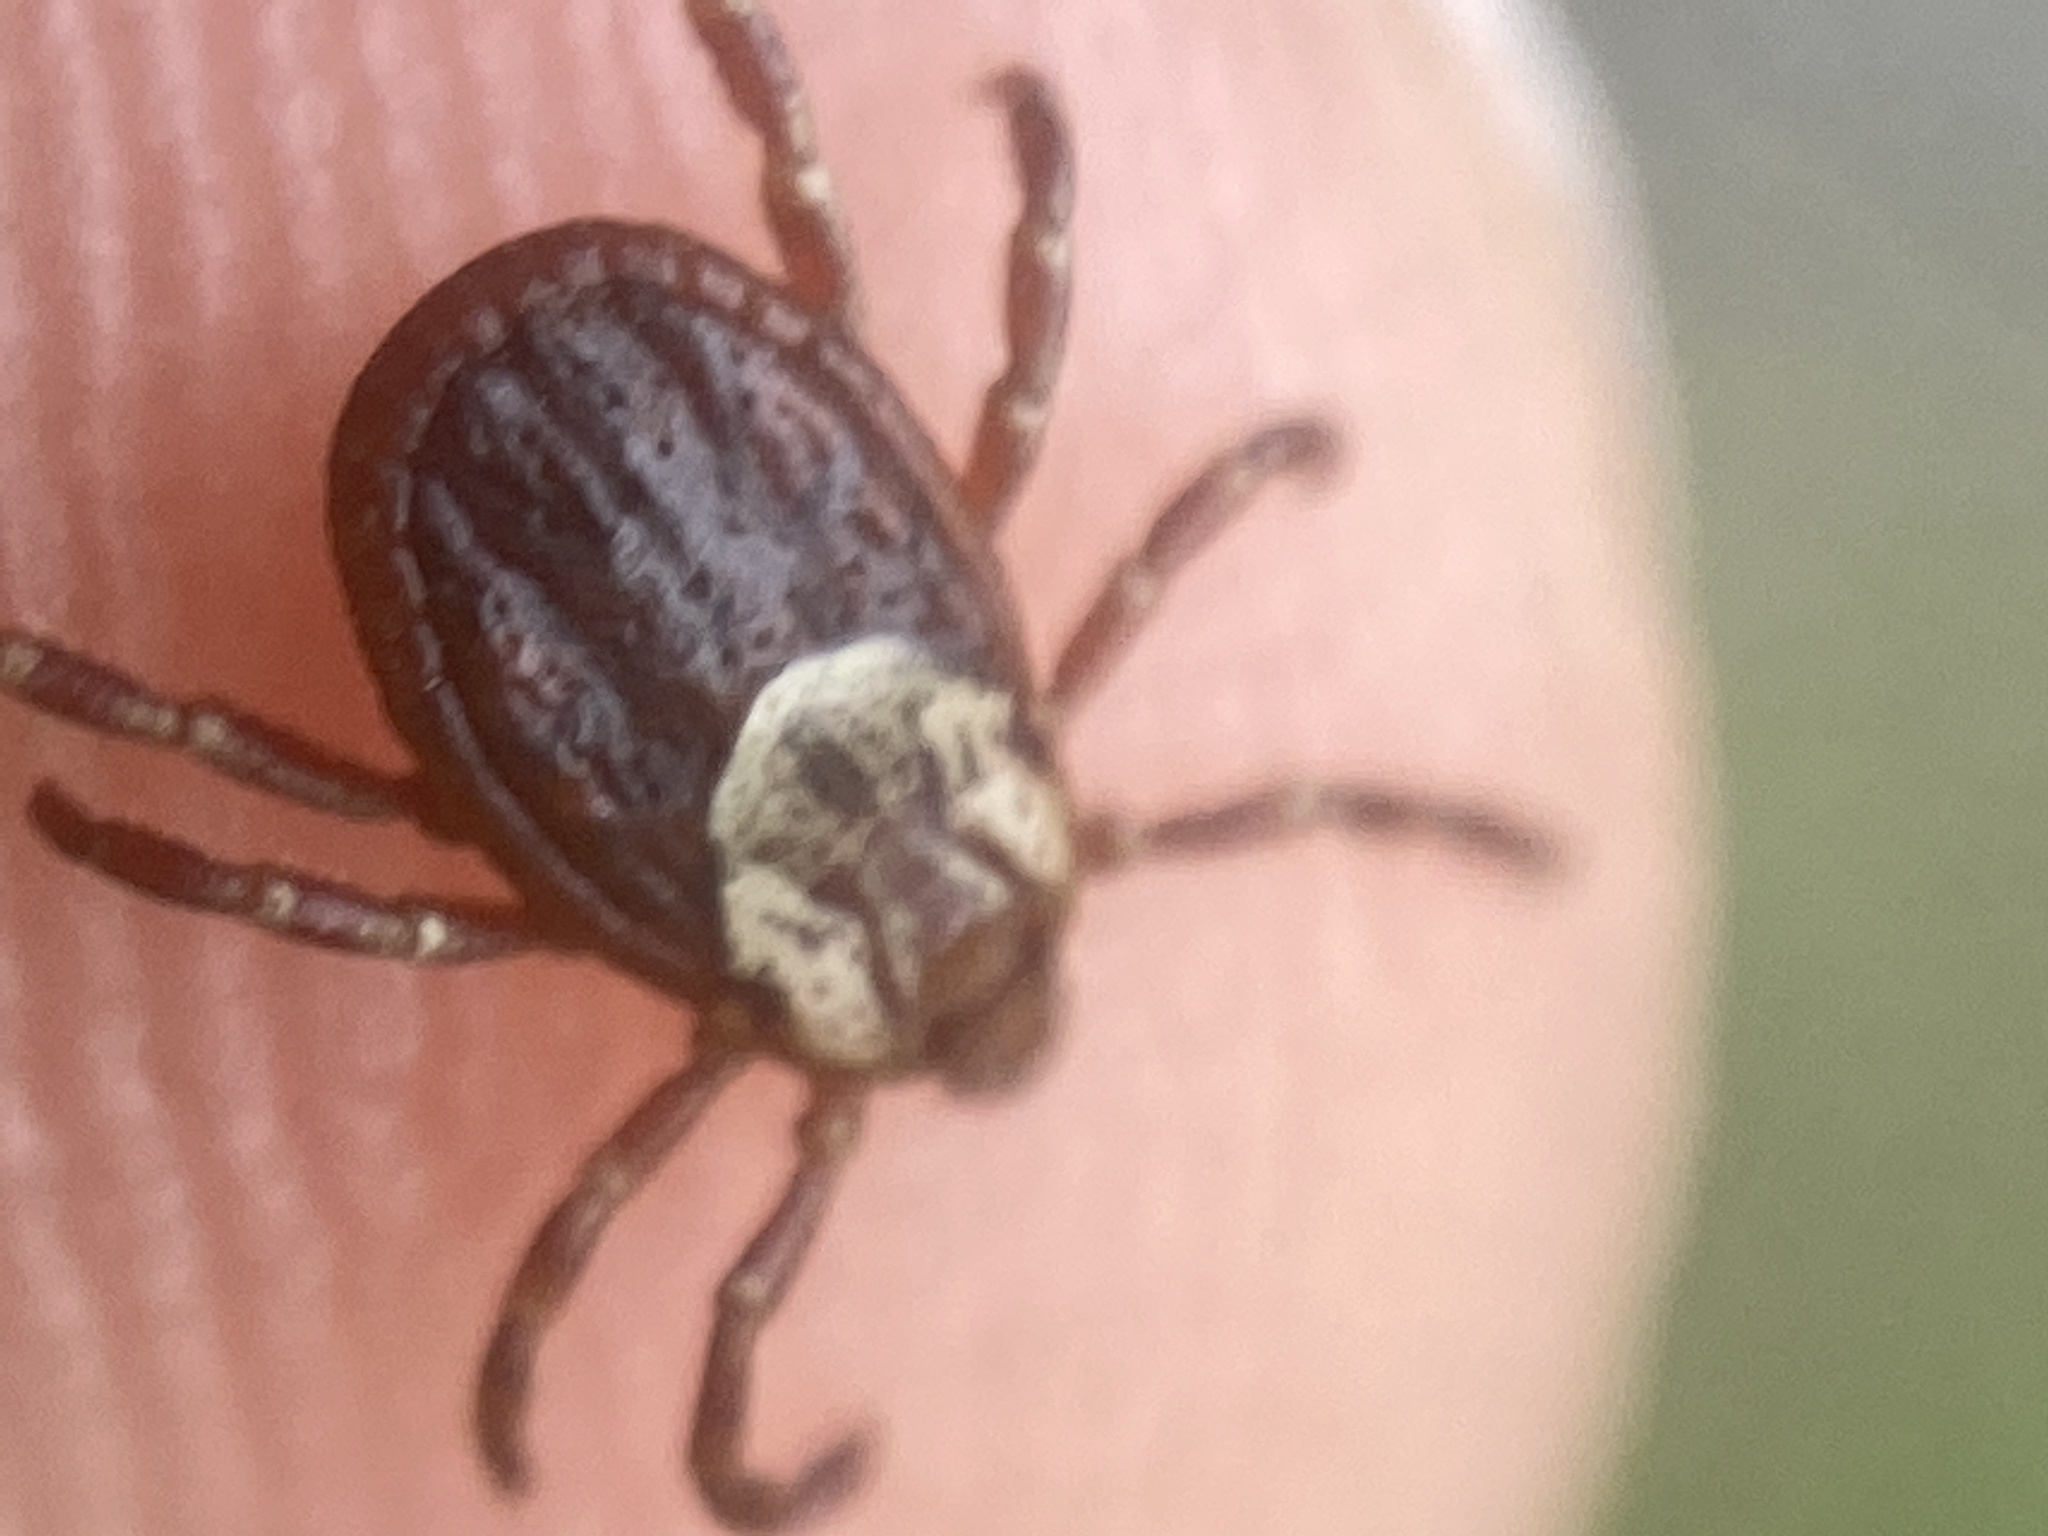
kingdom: Animalia
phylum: Arthropoda
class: Arachnida
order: Ixodida
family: Ixodidae
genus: Dermacentor
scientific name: Dermacentor variabilis
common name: American dog tick
